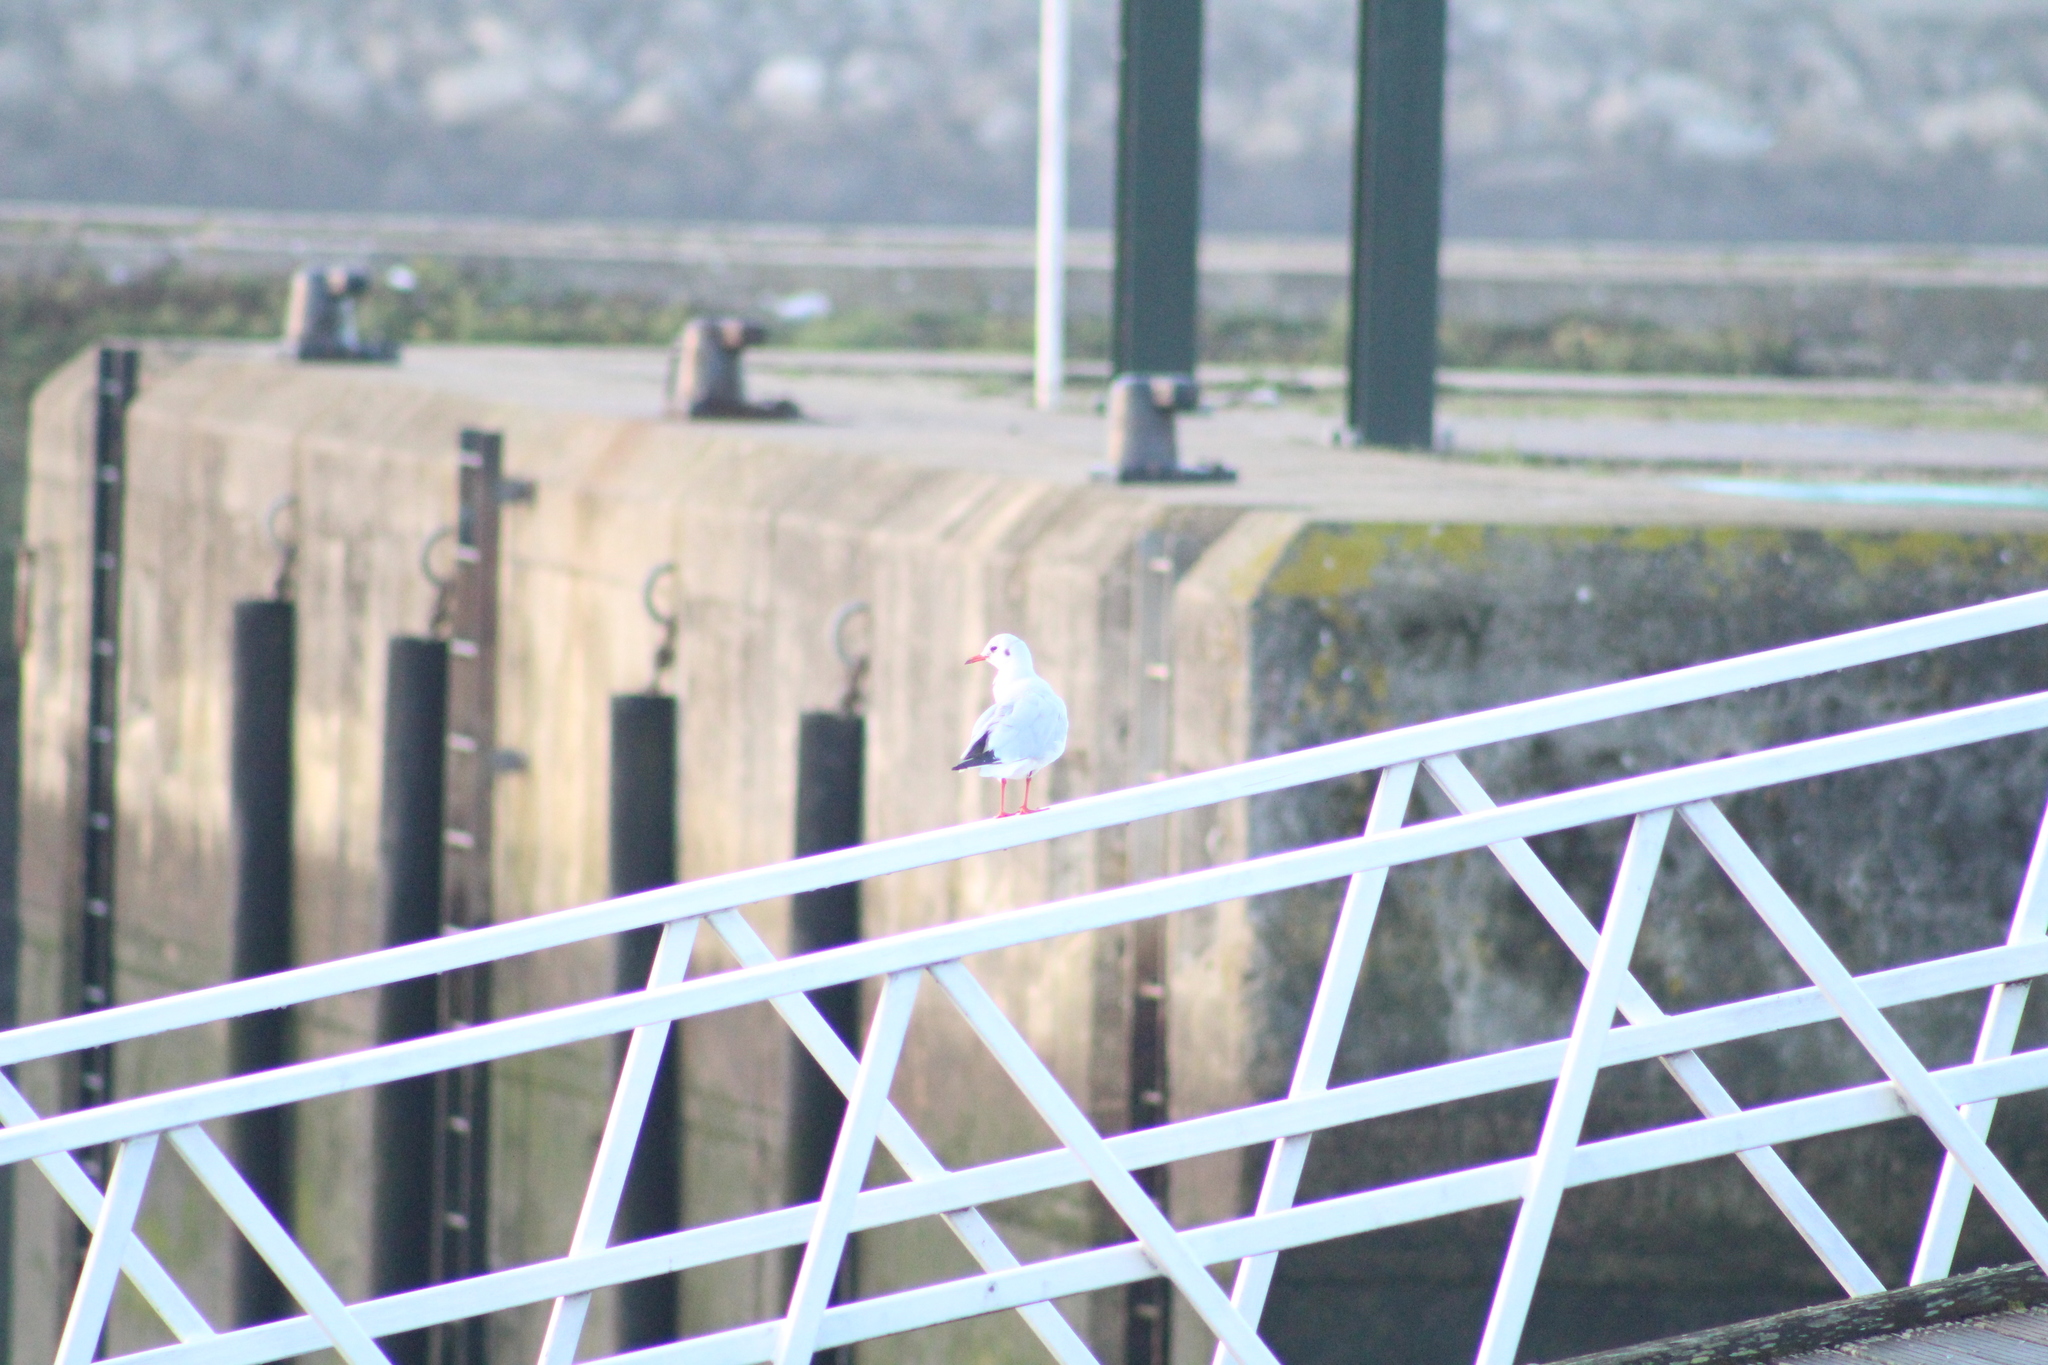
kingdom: Animalia
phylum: Chordata
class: Aves
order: Charadriiformes
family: Laridae
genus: Chroicocephalus
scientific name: Chroicocephalus ridibundus
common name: Black-headed gull
